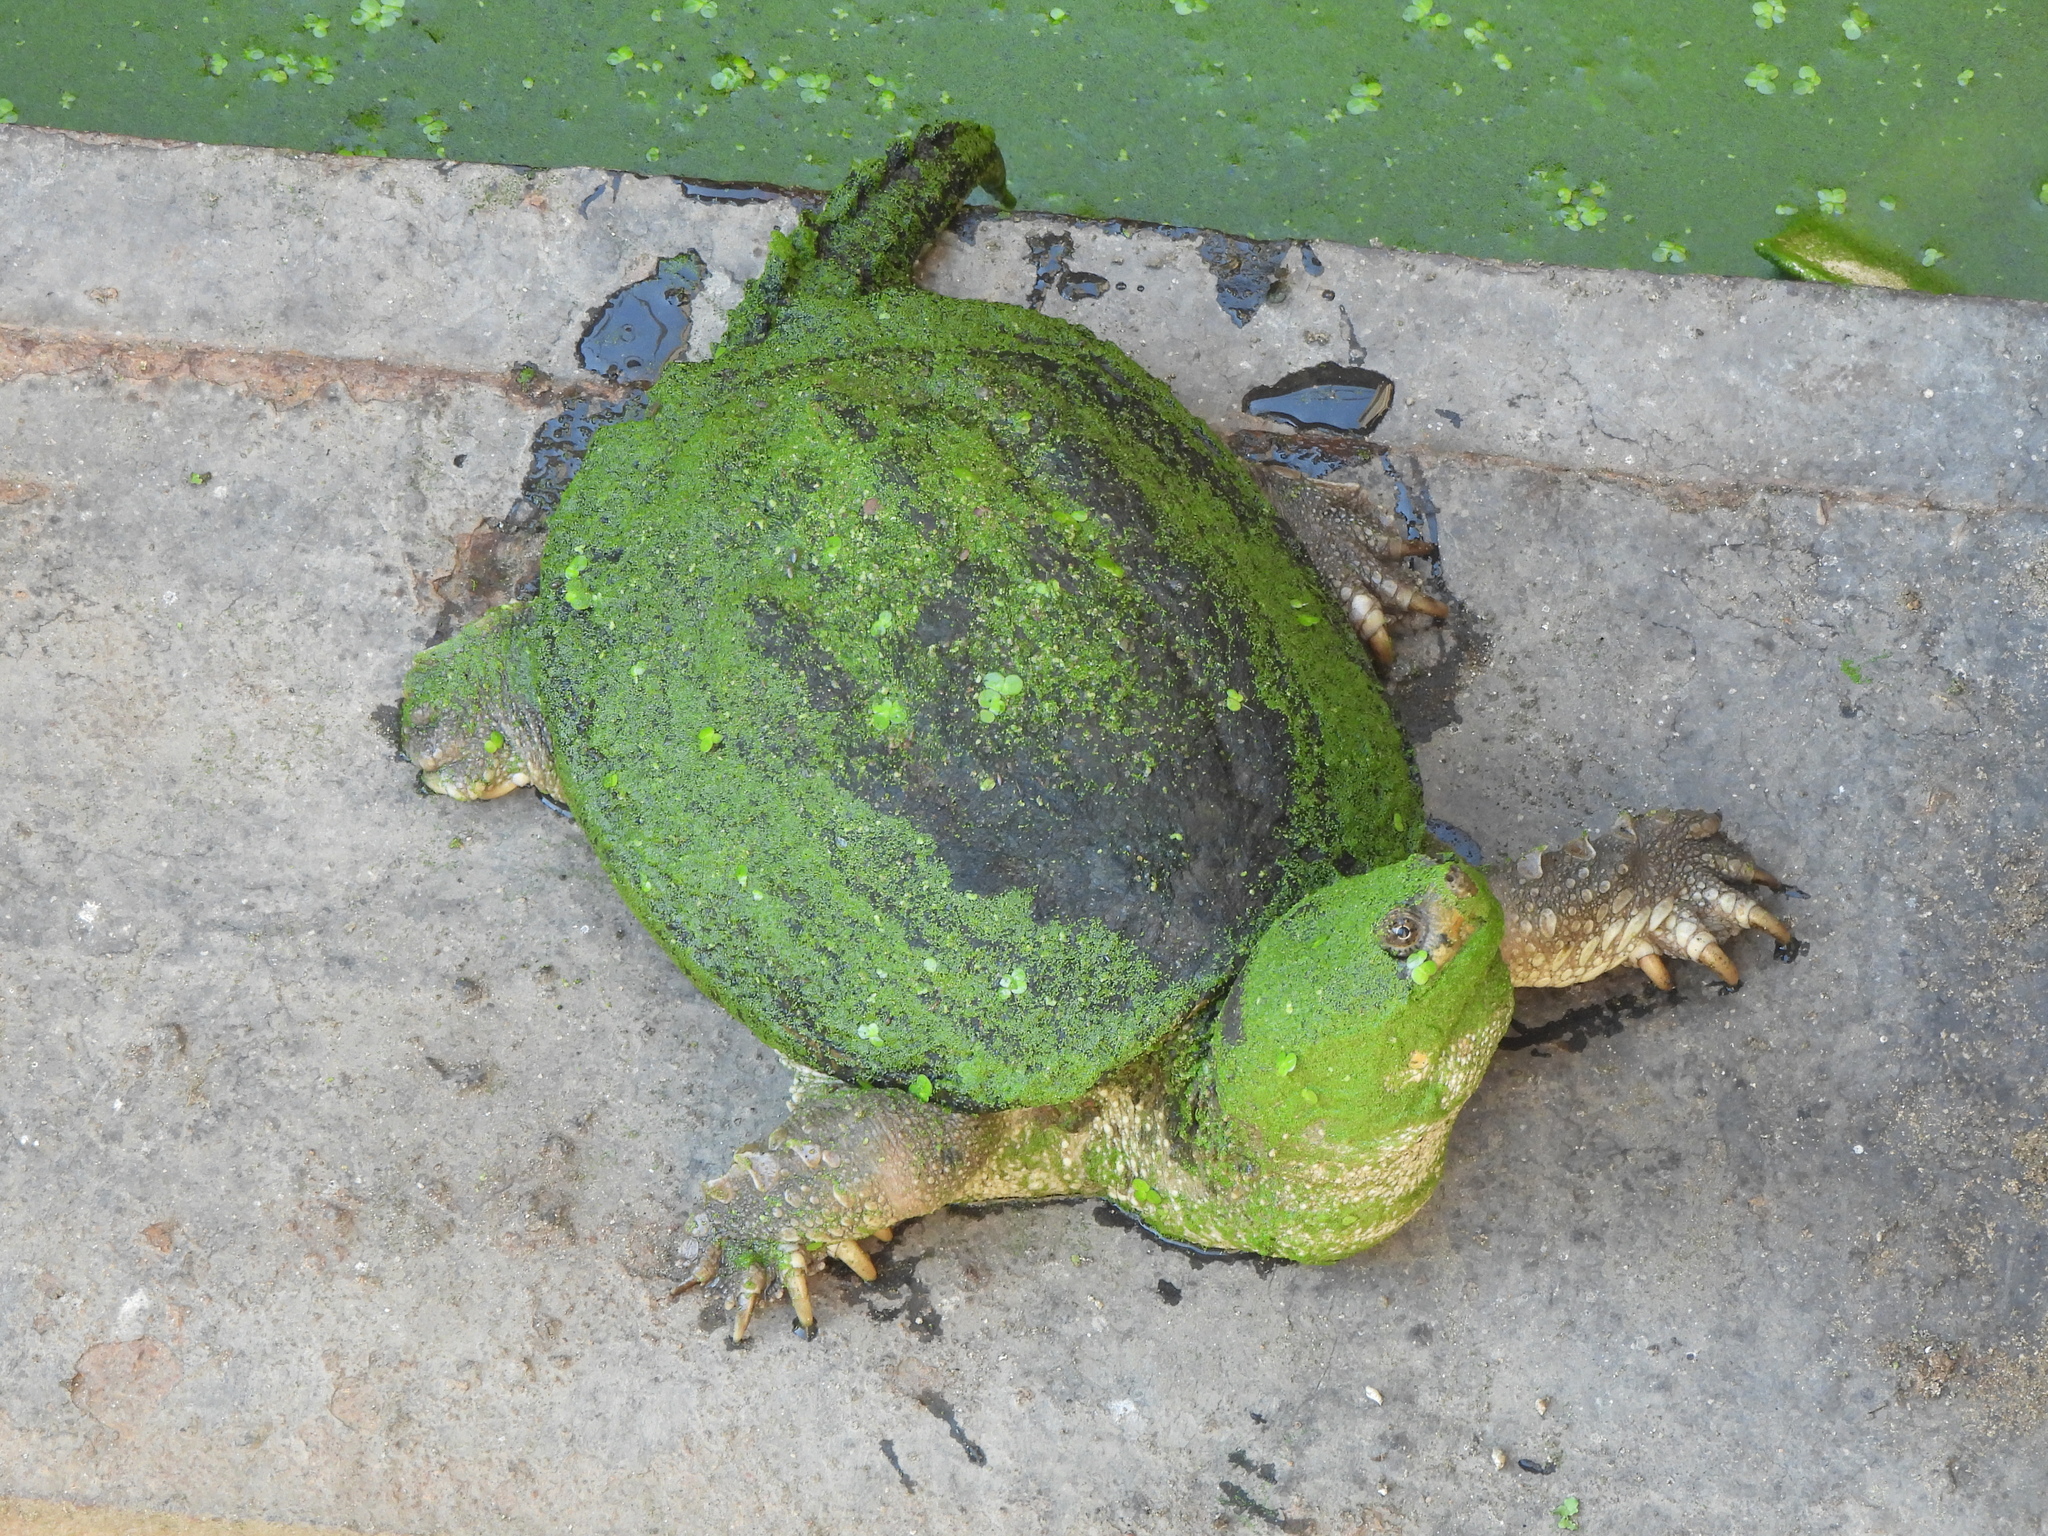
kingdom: Animalia
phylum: Chordata
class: Testudines
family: Chelydridae
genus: Chelydra
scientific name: Chelydra serpentina
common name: Common snapping turtle
